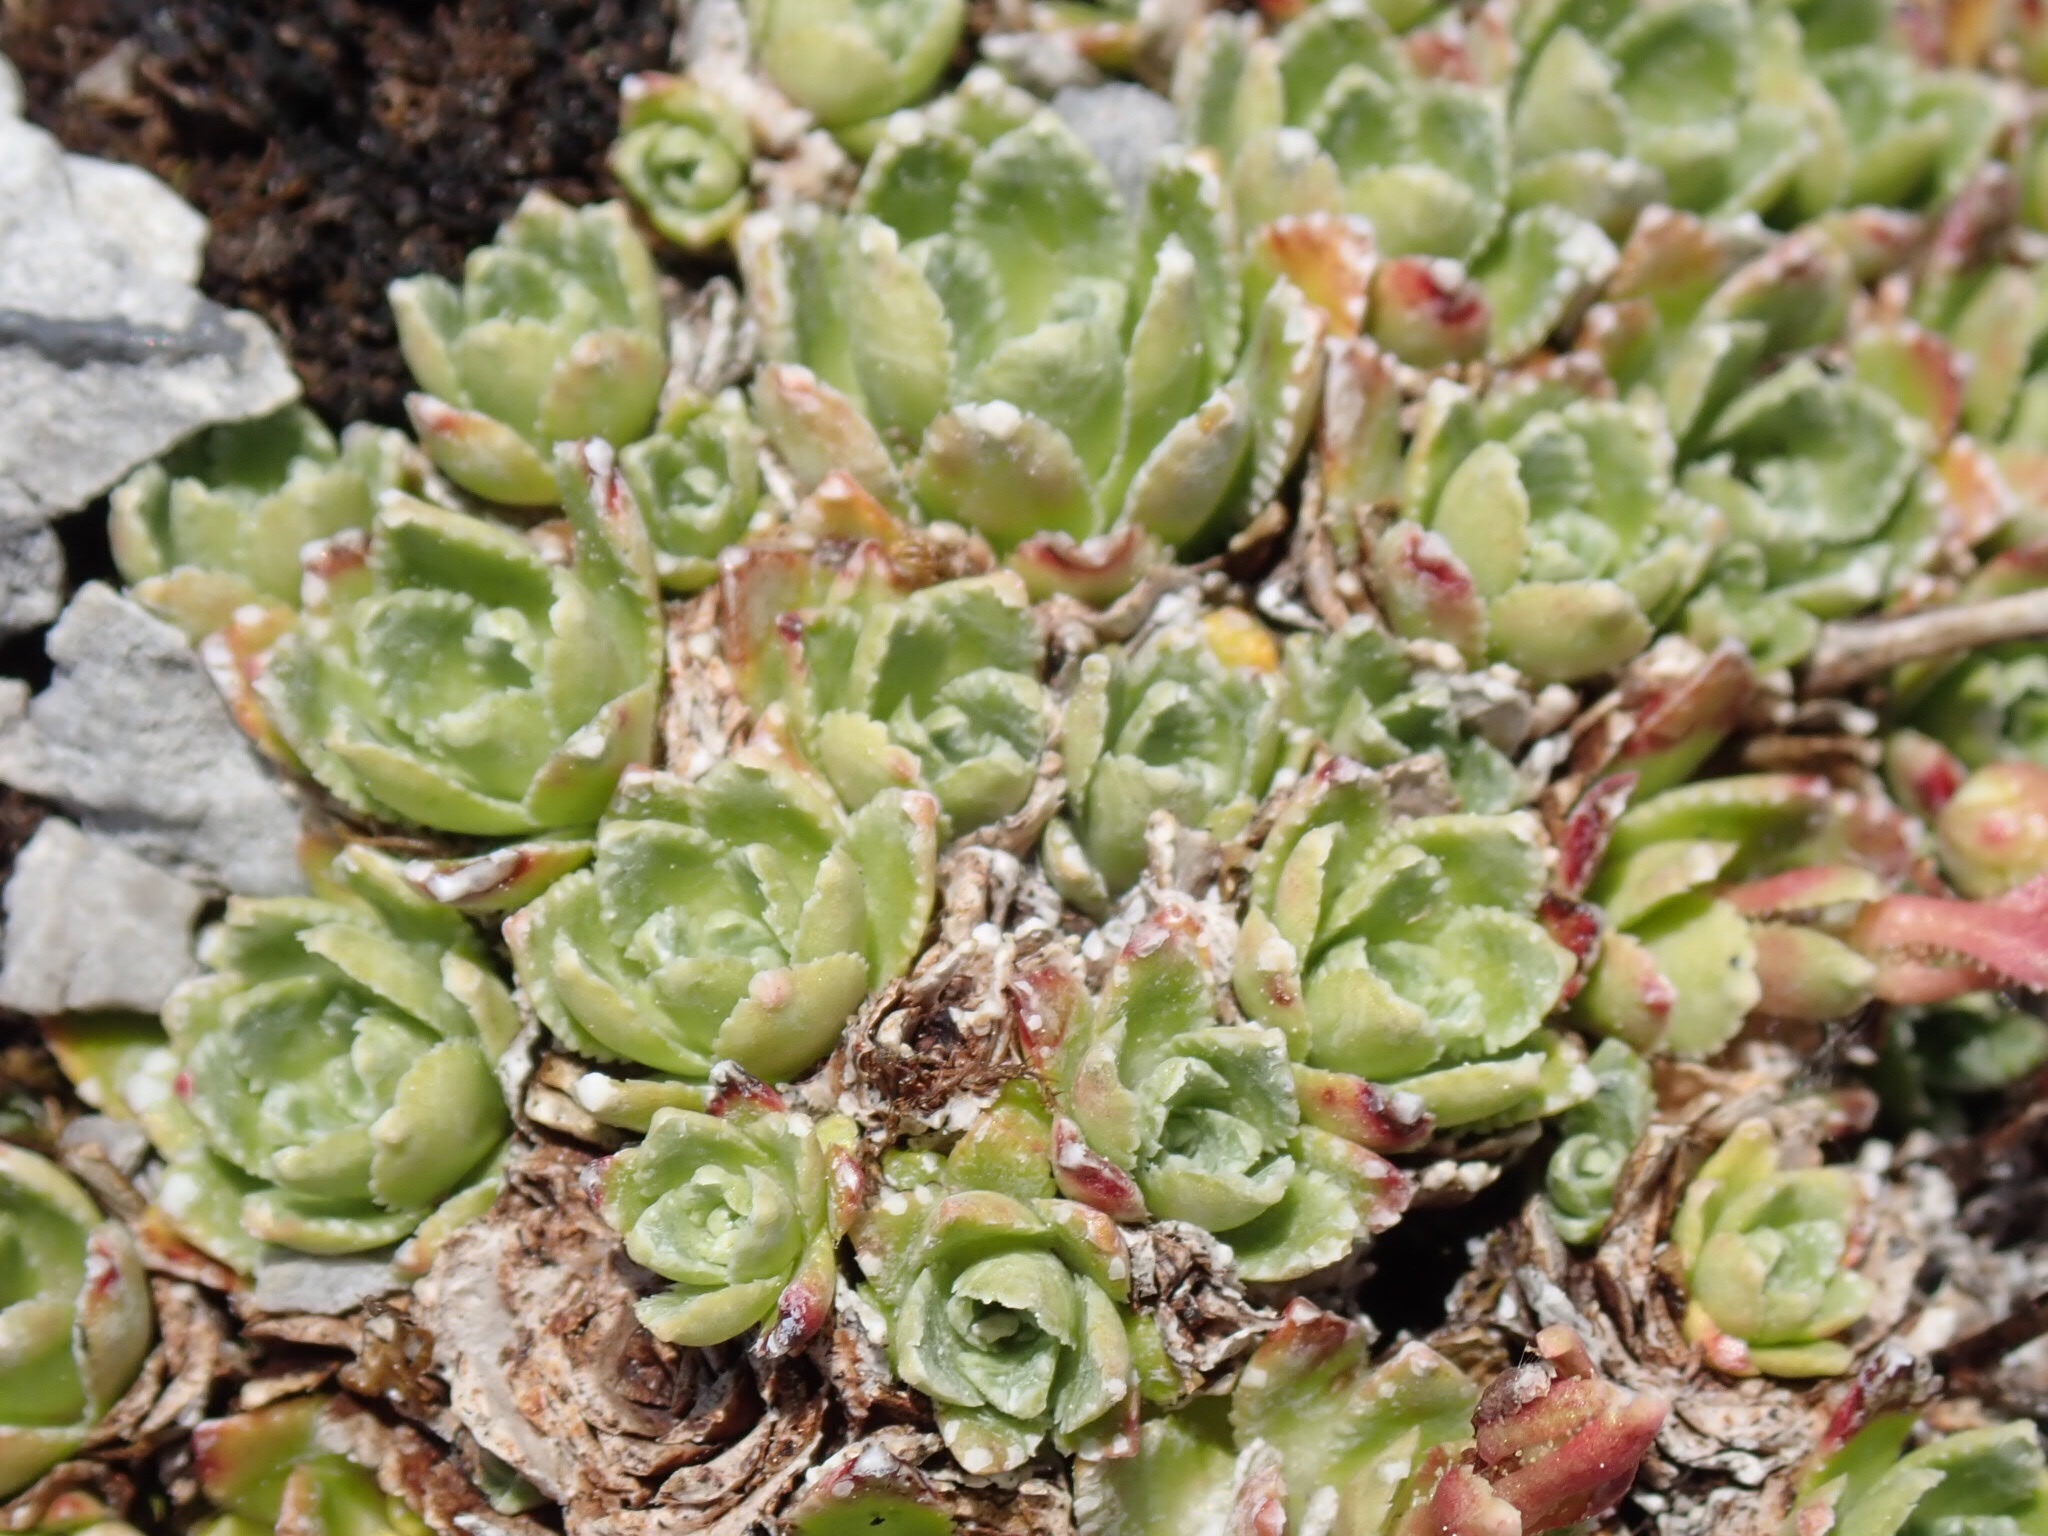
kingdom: Plantae
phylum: Tracheophyta
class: Magnoliopsida
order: Saxifragales
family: Saxifragaceae
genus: Saxifraga
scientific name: Saxifraga paniculata
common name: Livelong saxifrage
